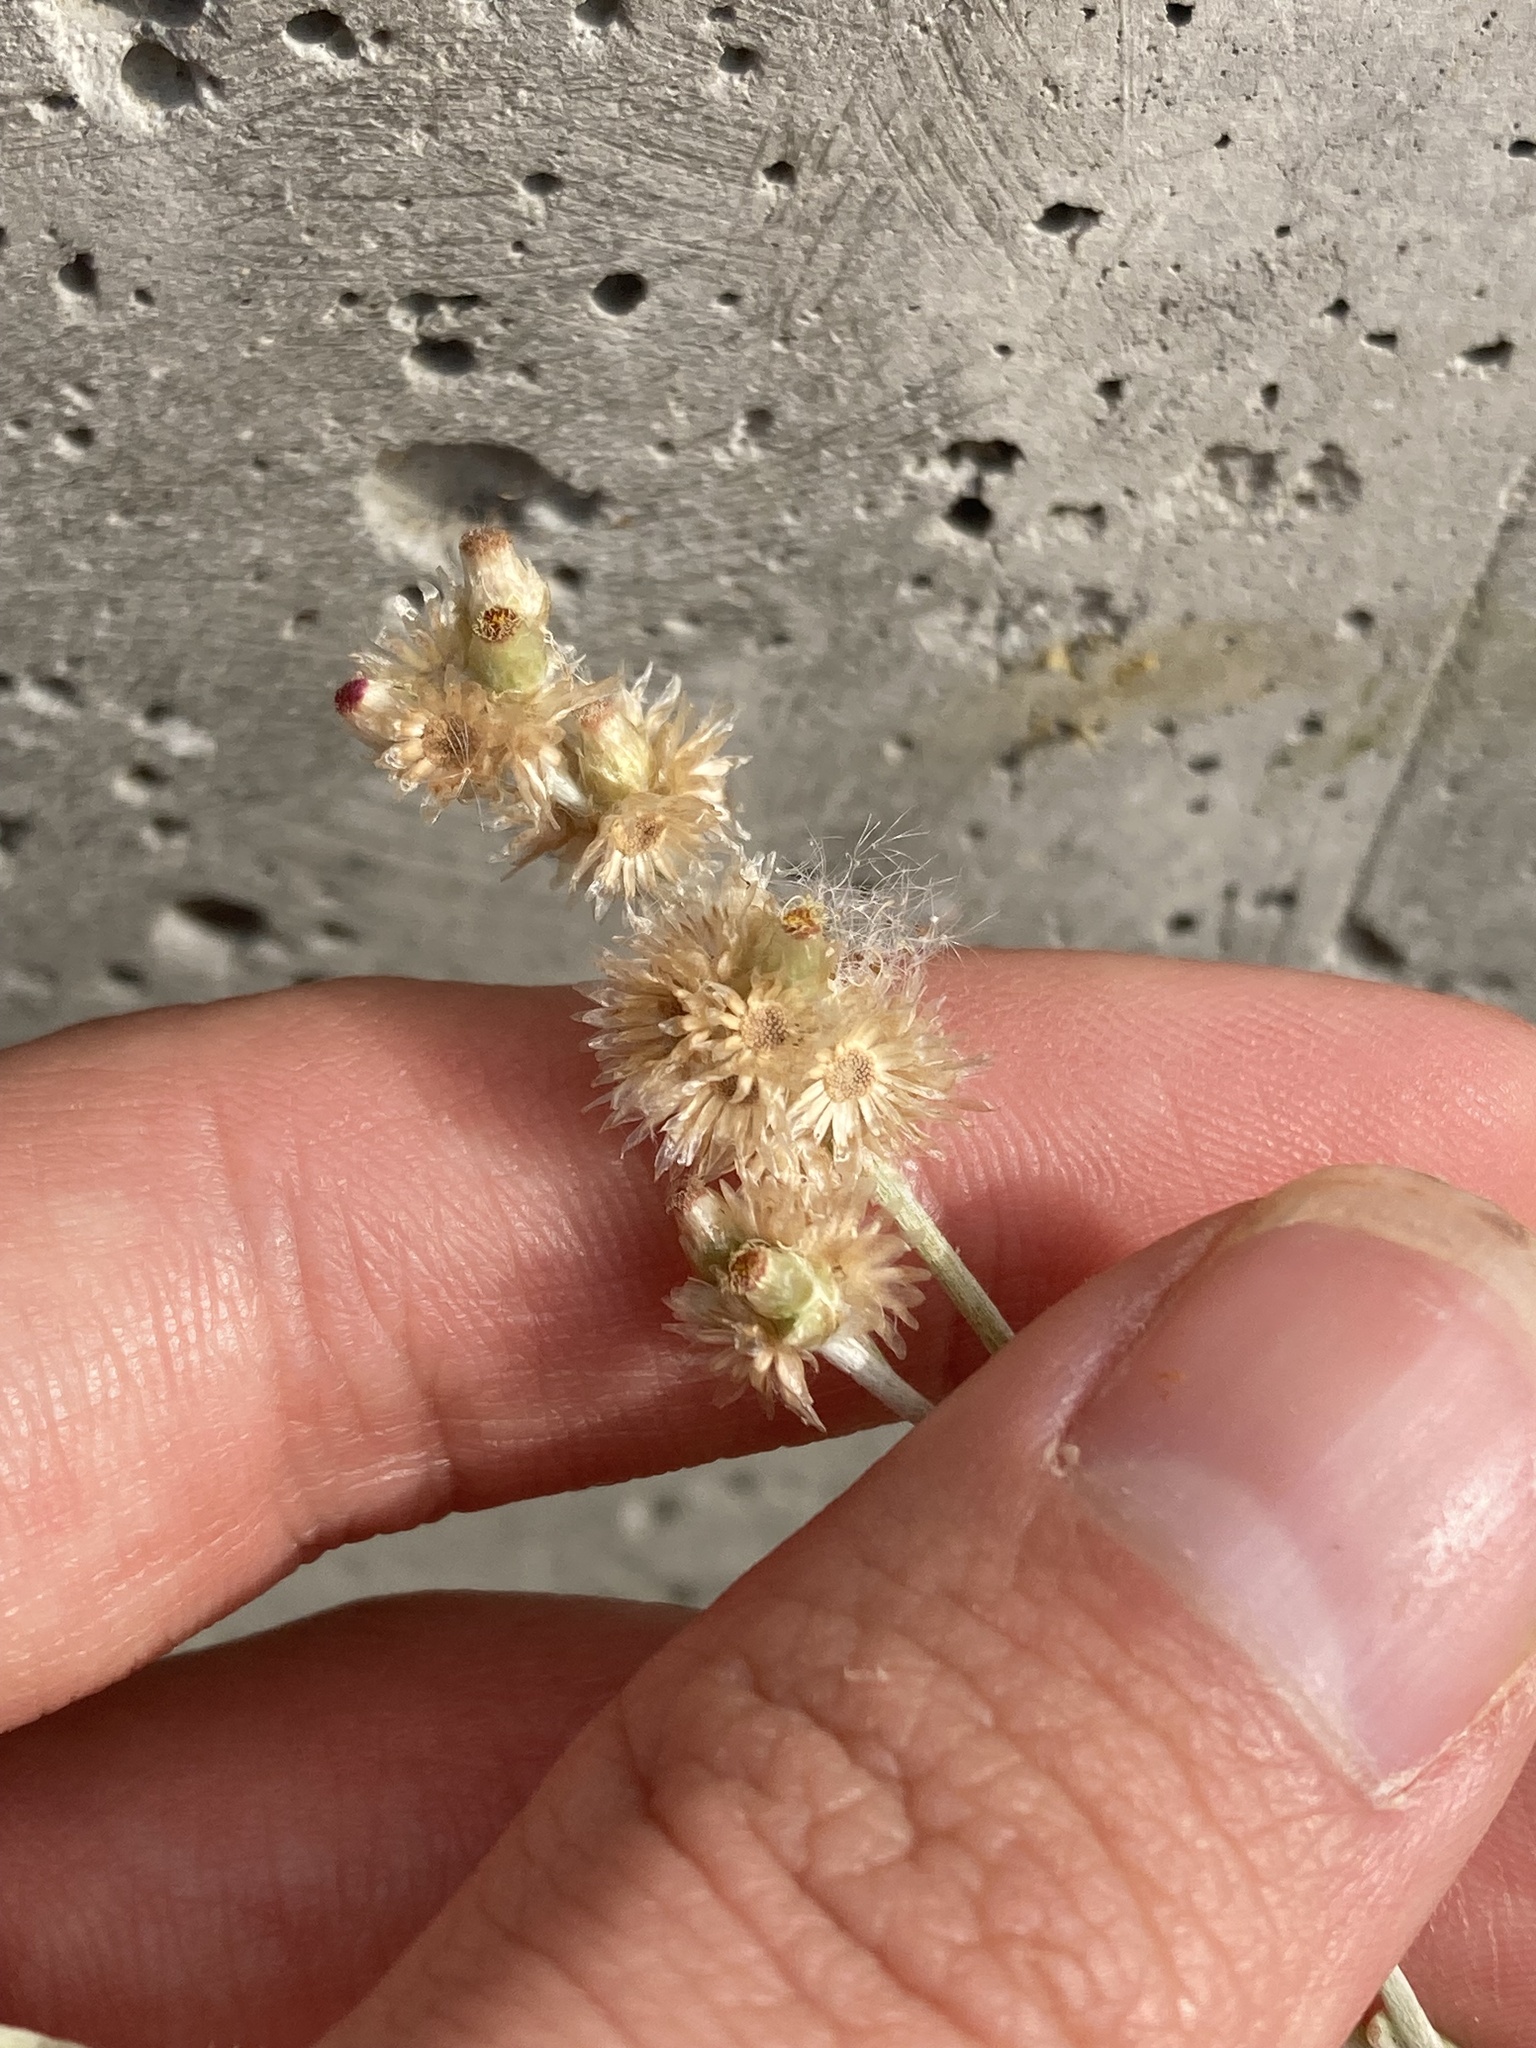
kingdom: Plantae
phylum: Tracheophyta
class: Magnoliopsida
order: Asterales
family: Asteraceae
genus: Helichrysum
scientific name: Helichrysum luteoalbum
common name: Daisy
